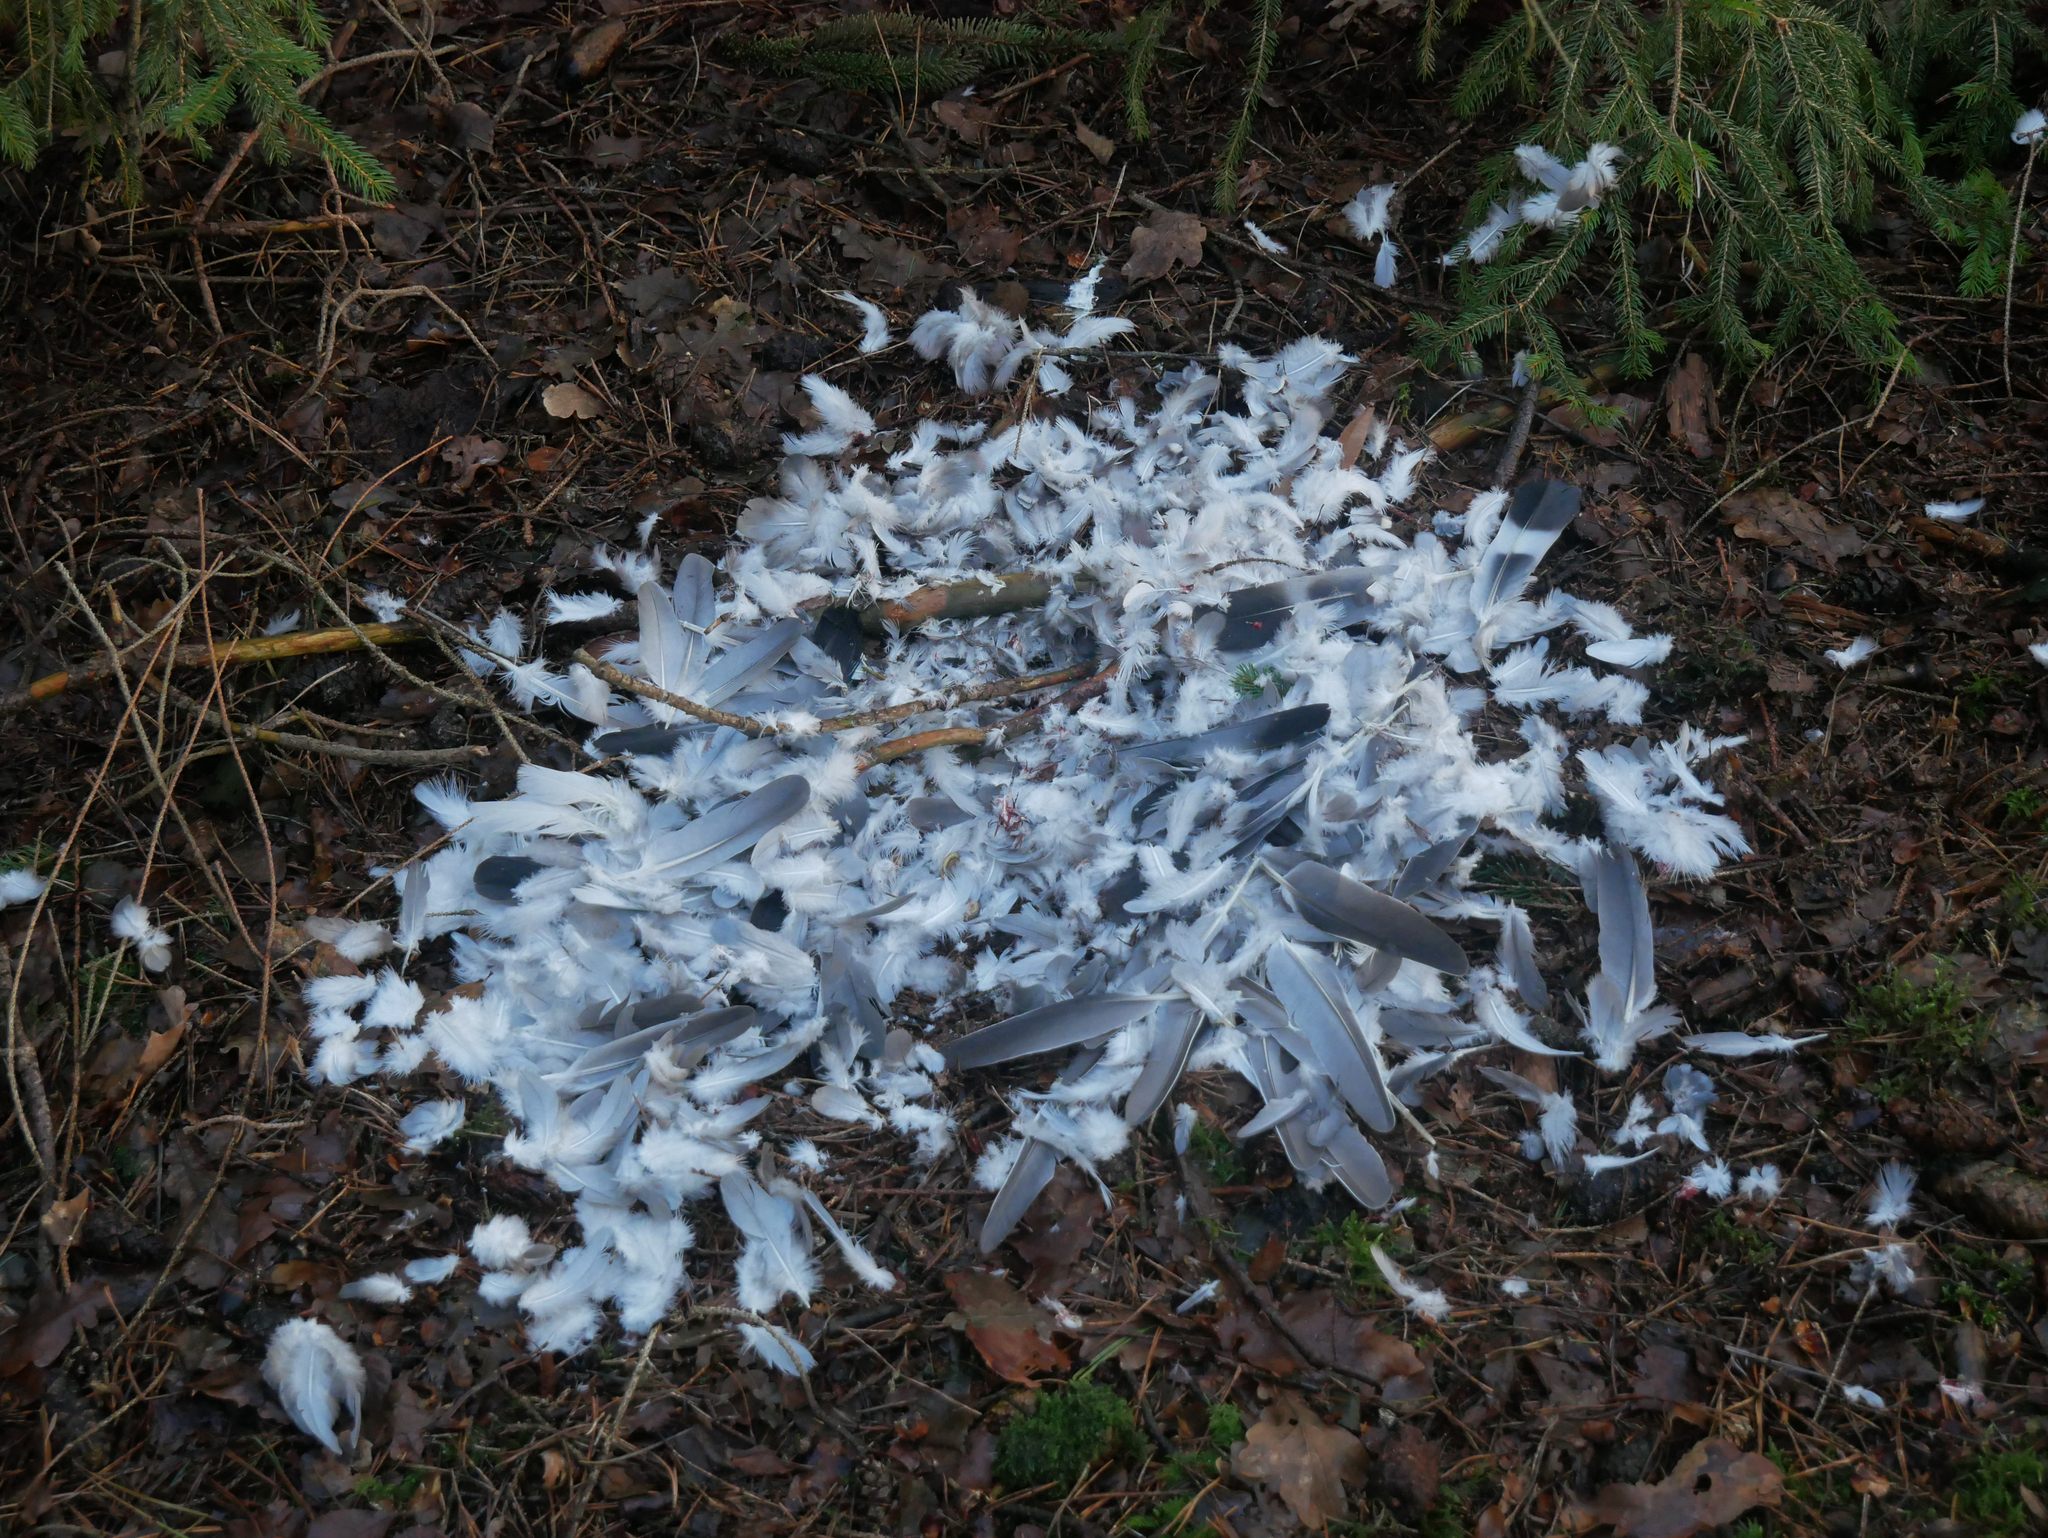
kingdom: Animalia
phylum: Chordata
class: Aves
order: Columbiformes
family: Columbidae
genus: Columba
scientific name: Columba palumbus
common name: Common wood pigeon
